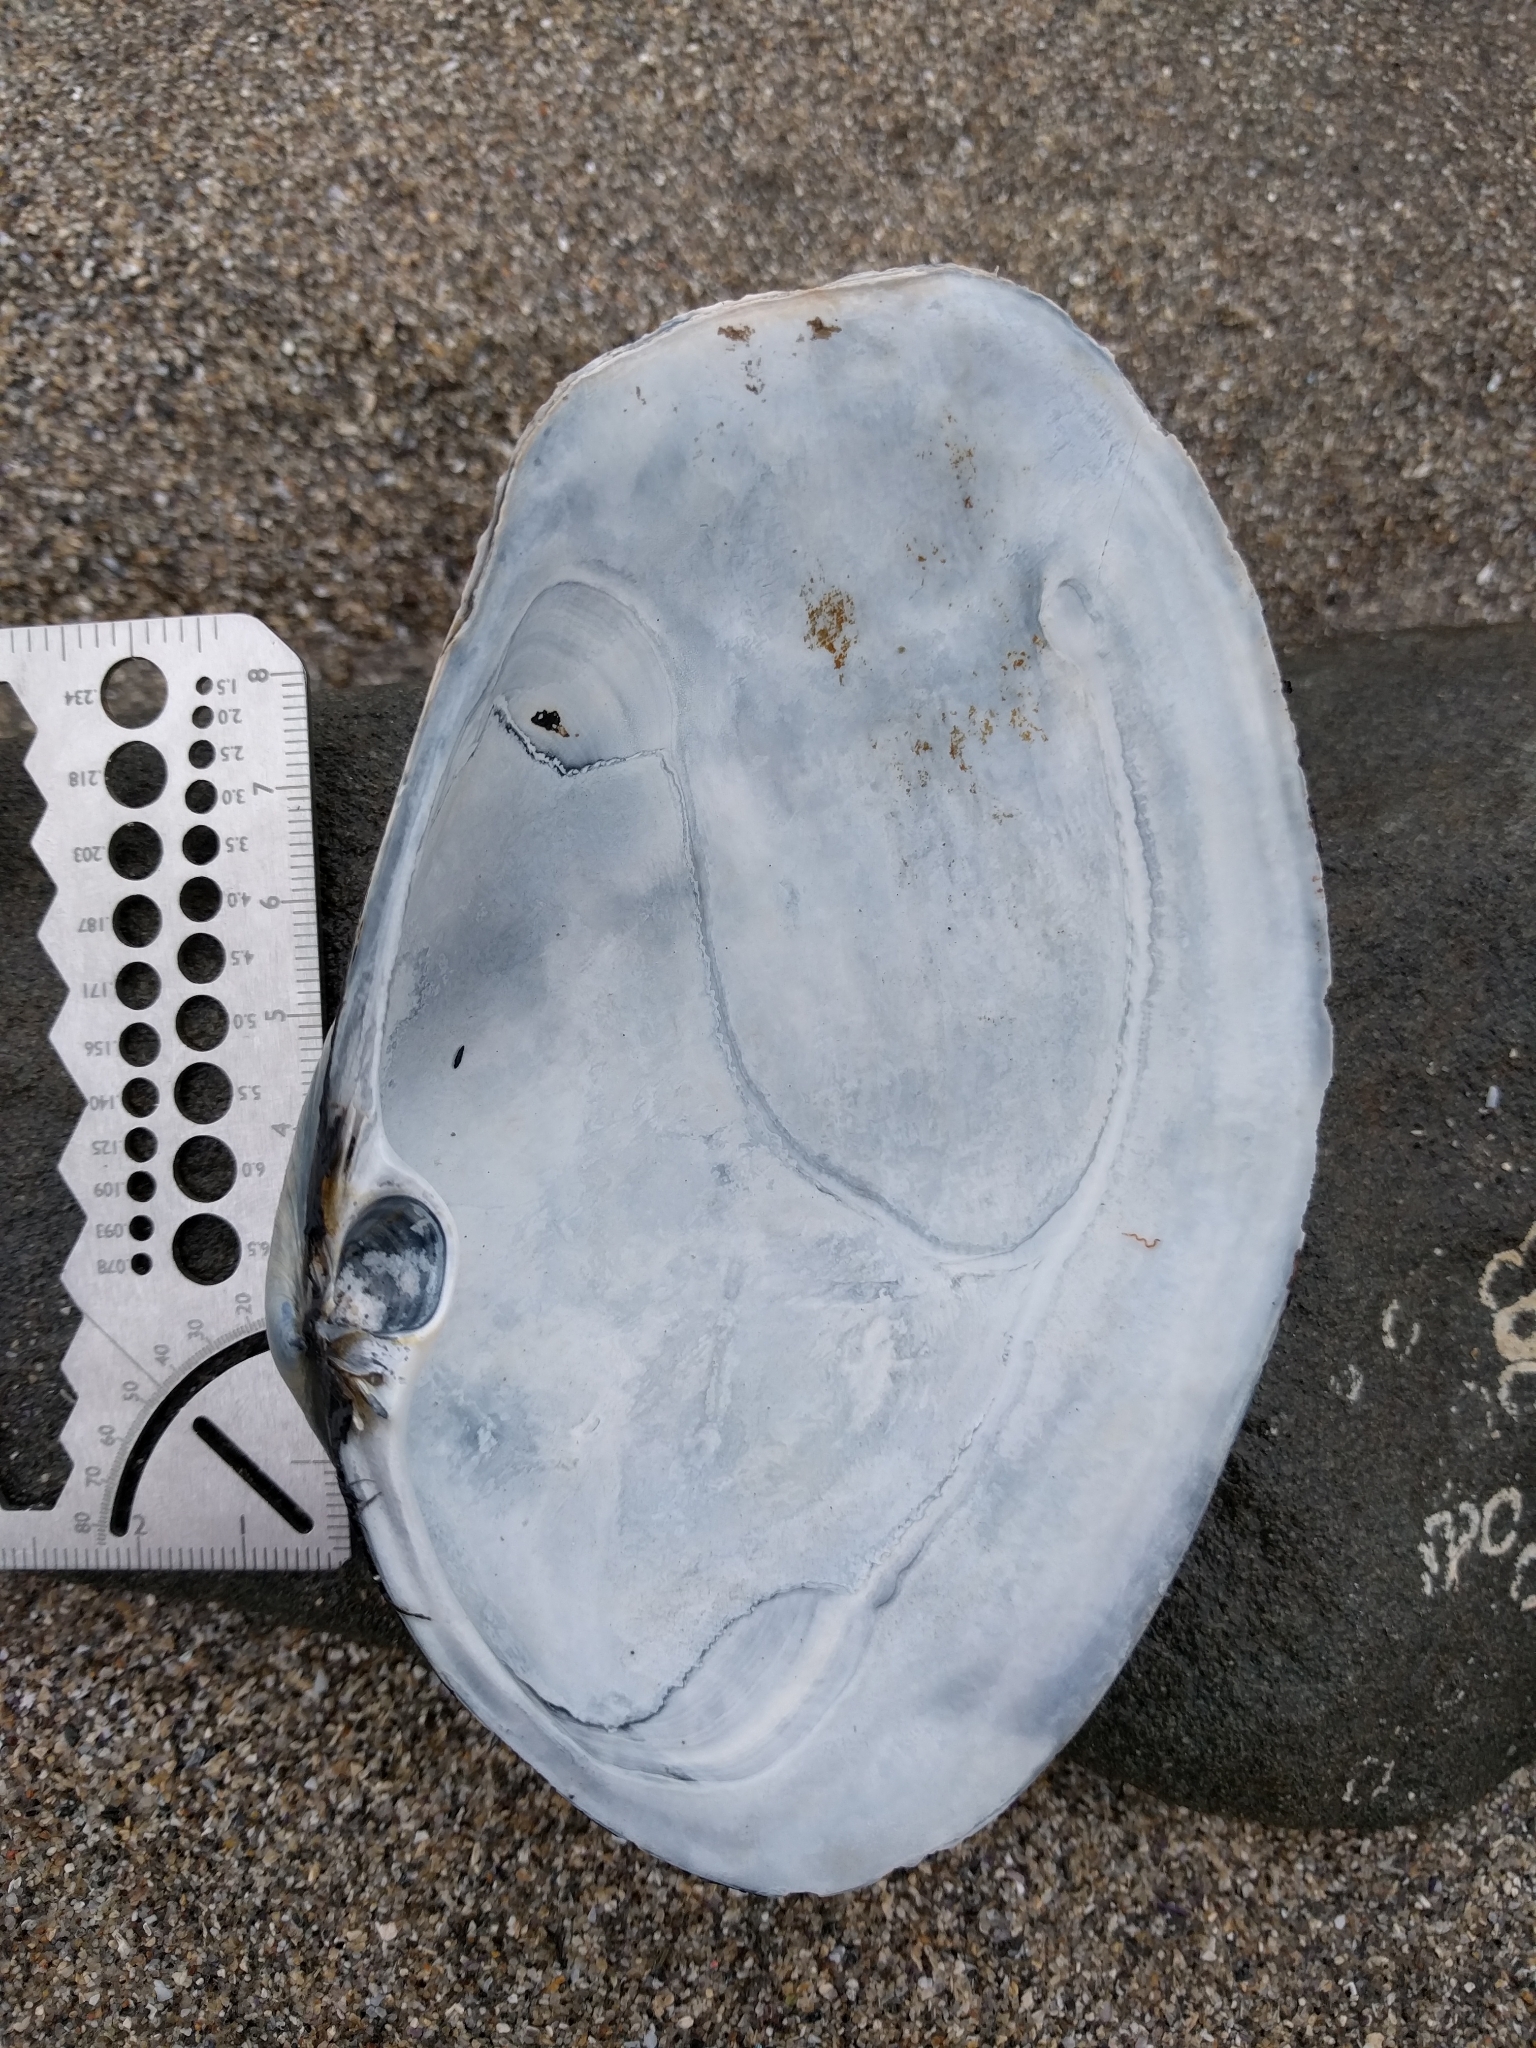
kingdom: Animalia
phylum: Mollusca
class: Bivalvia
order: Venerida
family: Mactridae
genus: Tresus
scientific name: Tresus nuttallii
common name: Pacific gaper clam
